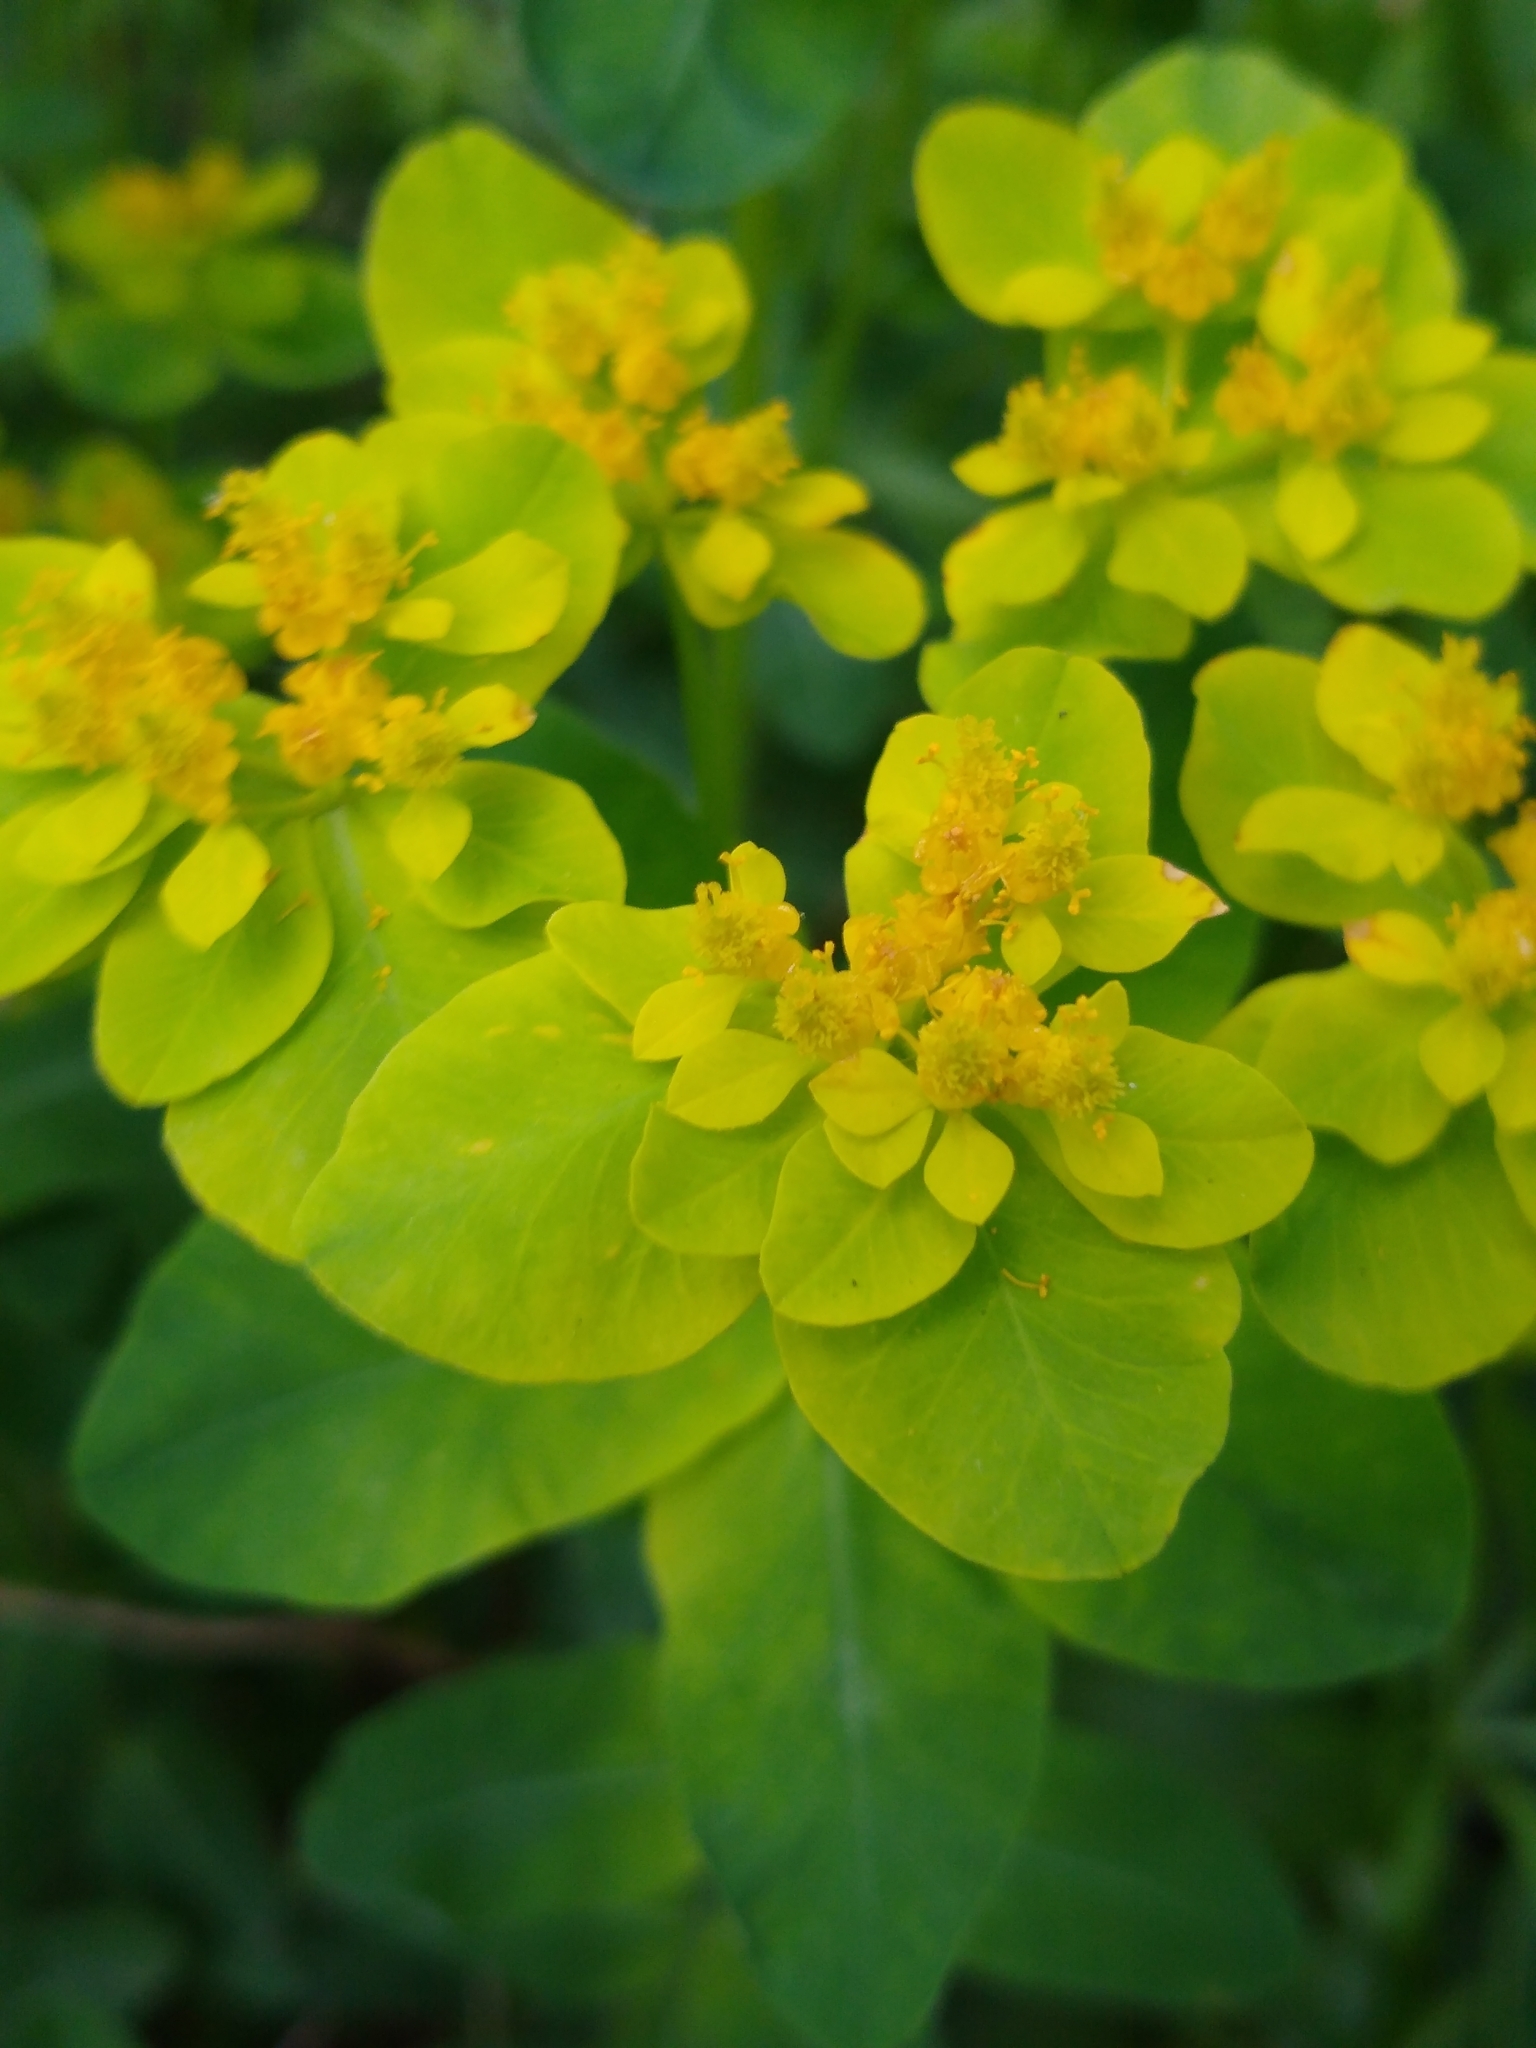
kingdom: Plantae
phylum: Tracheophyta
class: Magnoliopsida
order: Malpighiales
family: Euphorbiaceae
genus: Euphorbia
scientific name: Euphorbia oblongata
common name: Balkan spurge
